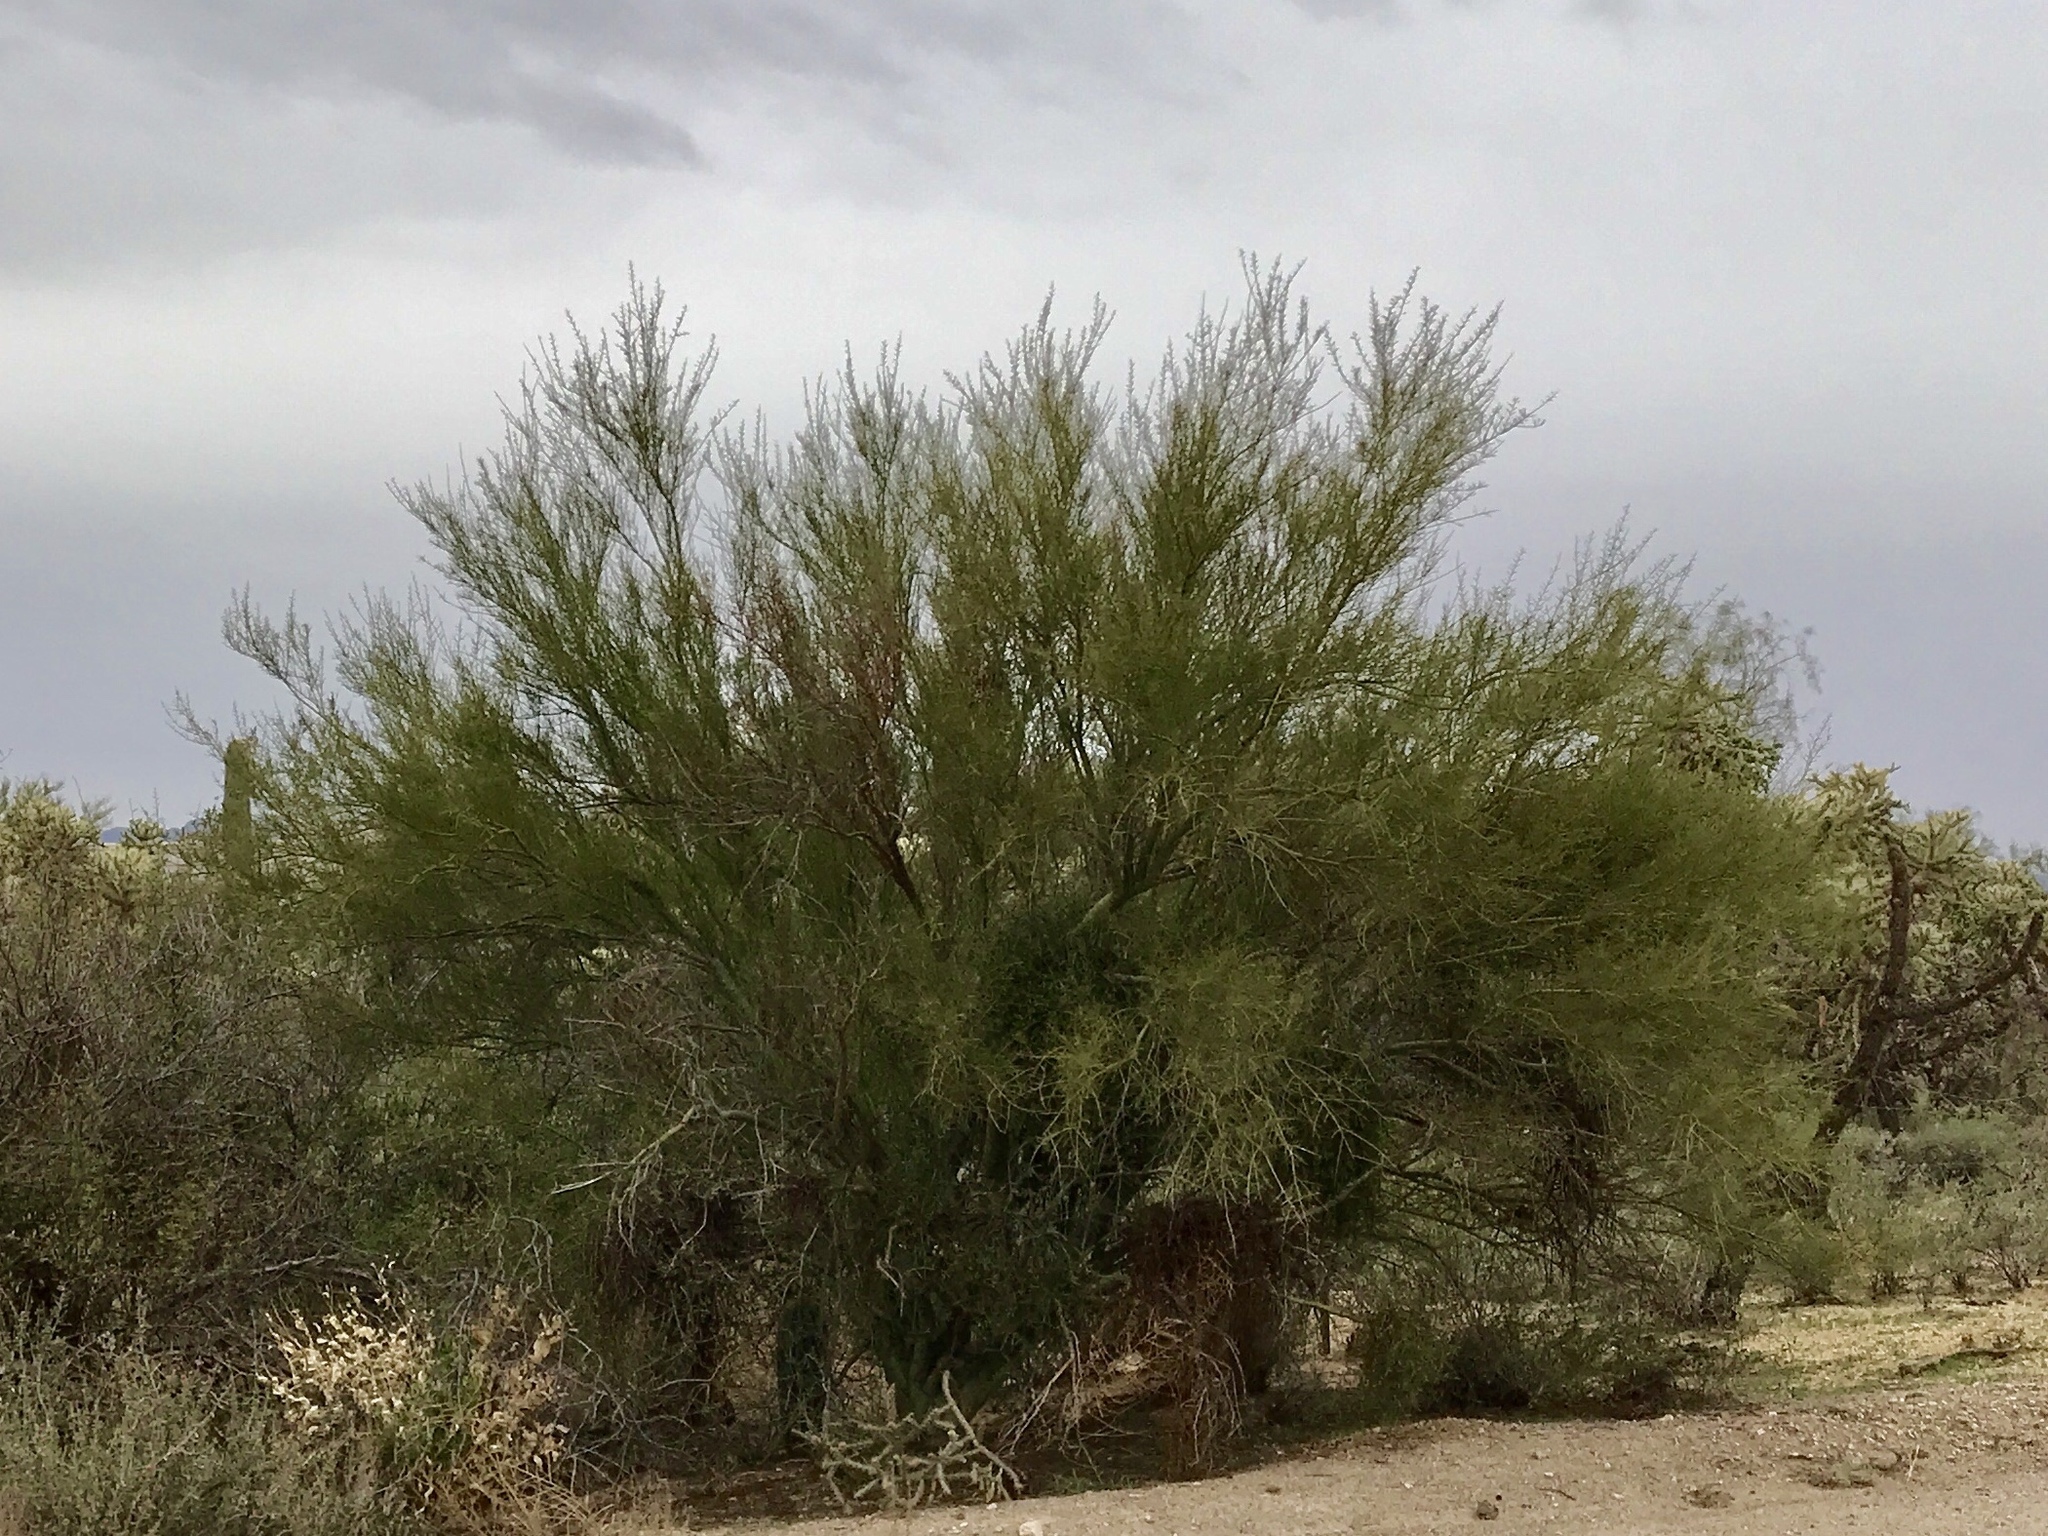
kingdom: Plantae
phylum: Tracheophyta
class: Magnoliopsida
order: Fabales
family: Fabaceae
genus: Parkinsonia
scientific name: Parkinsonia microphylla
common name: Yellow paloverde
